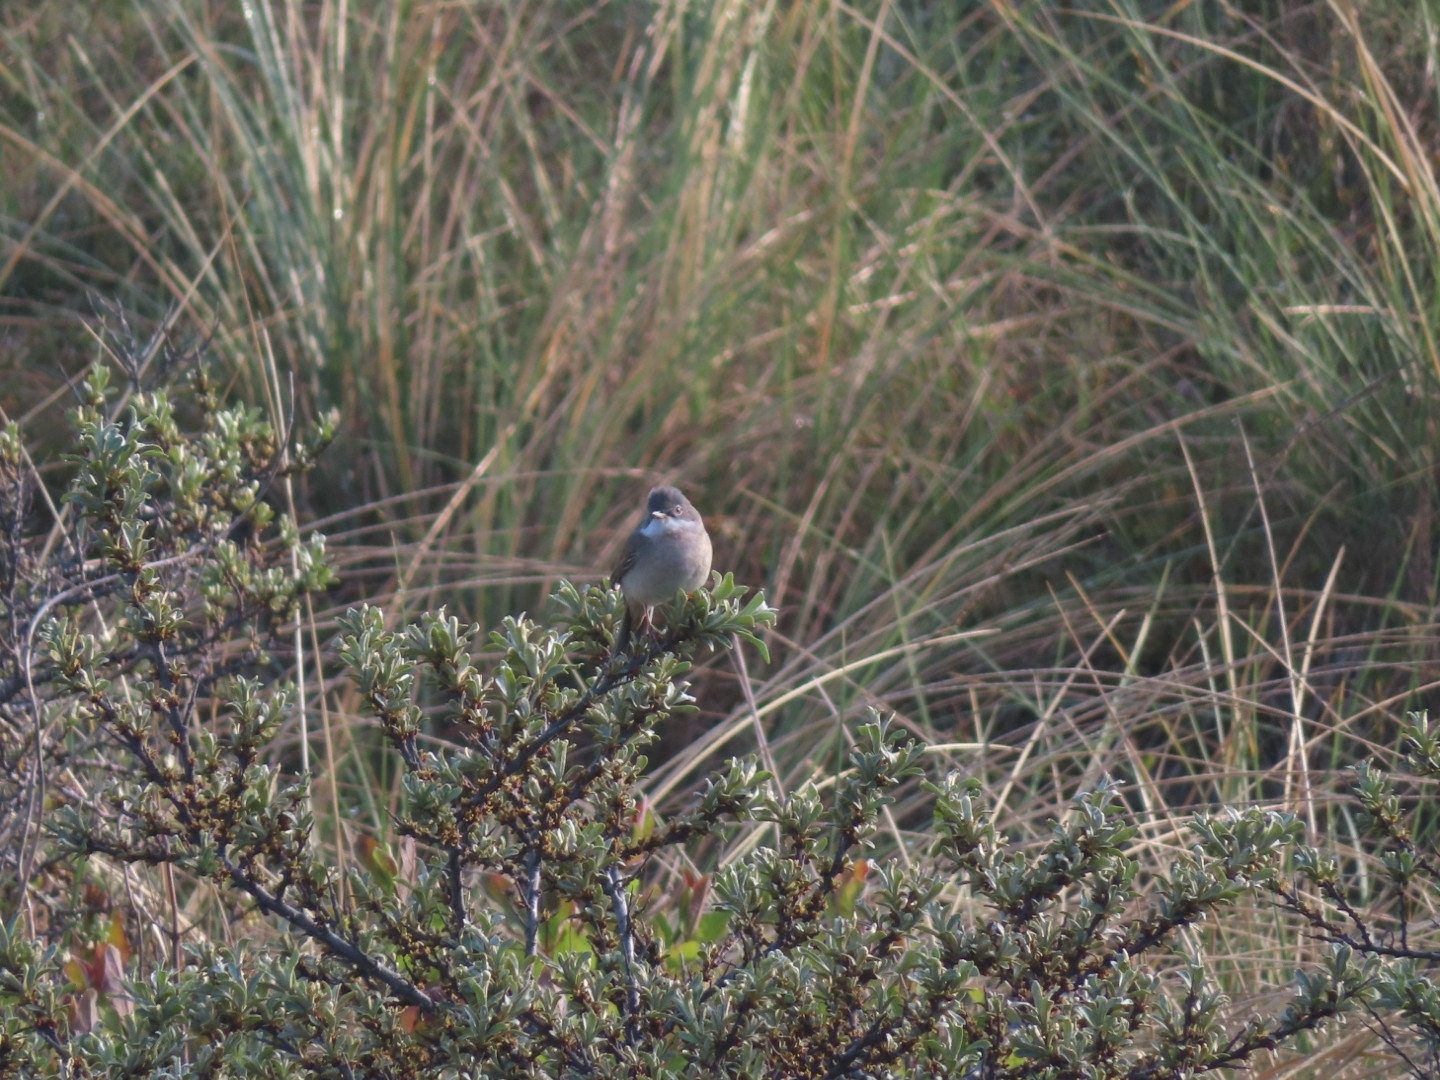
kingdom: Animalia
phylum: Chordata
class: Aves
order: Passeriformes
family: Sylviidae
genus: Sylvia
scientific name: Sylvia communis
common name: Common whitethroat
